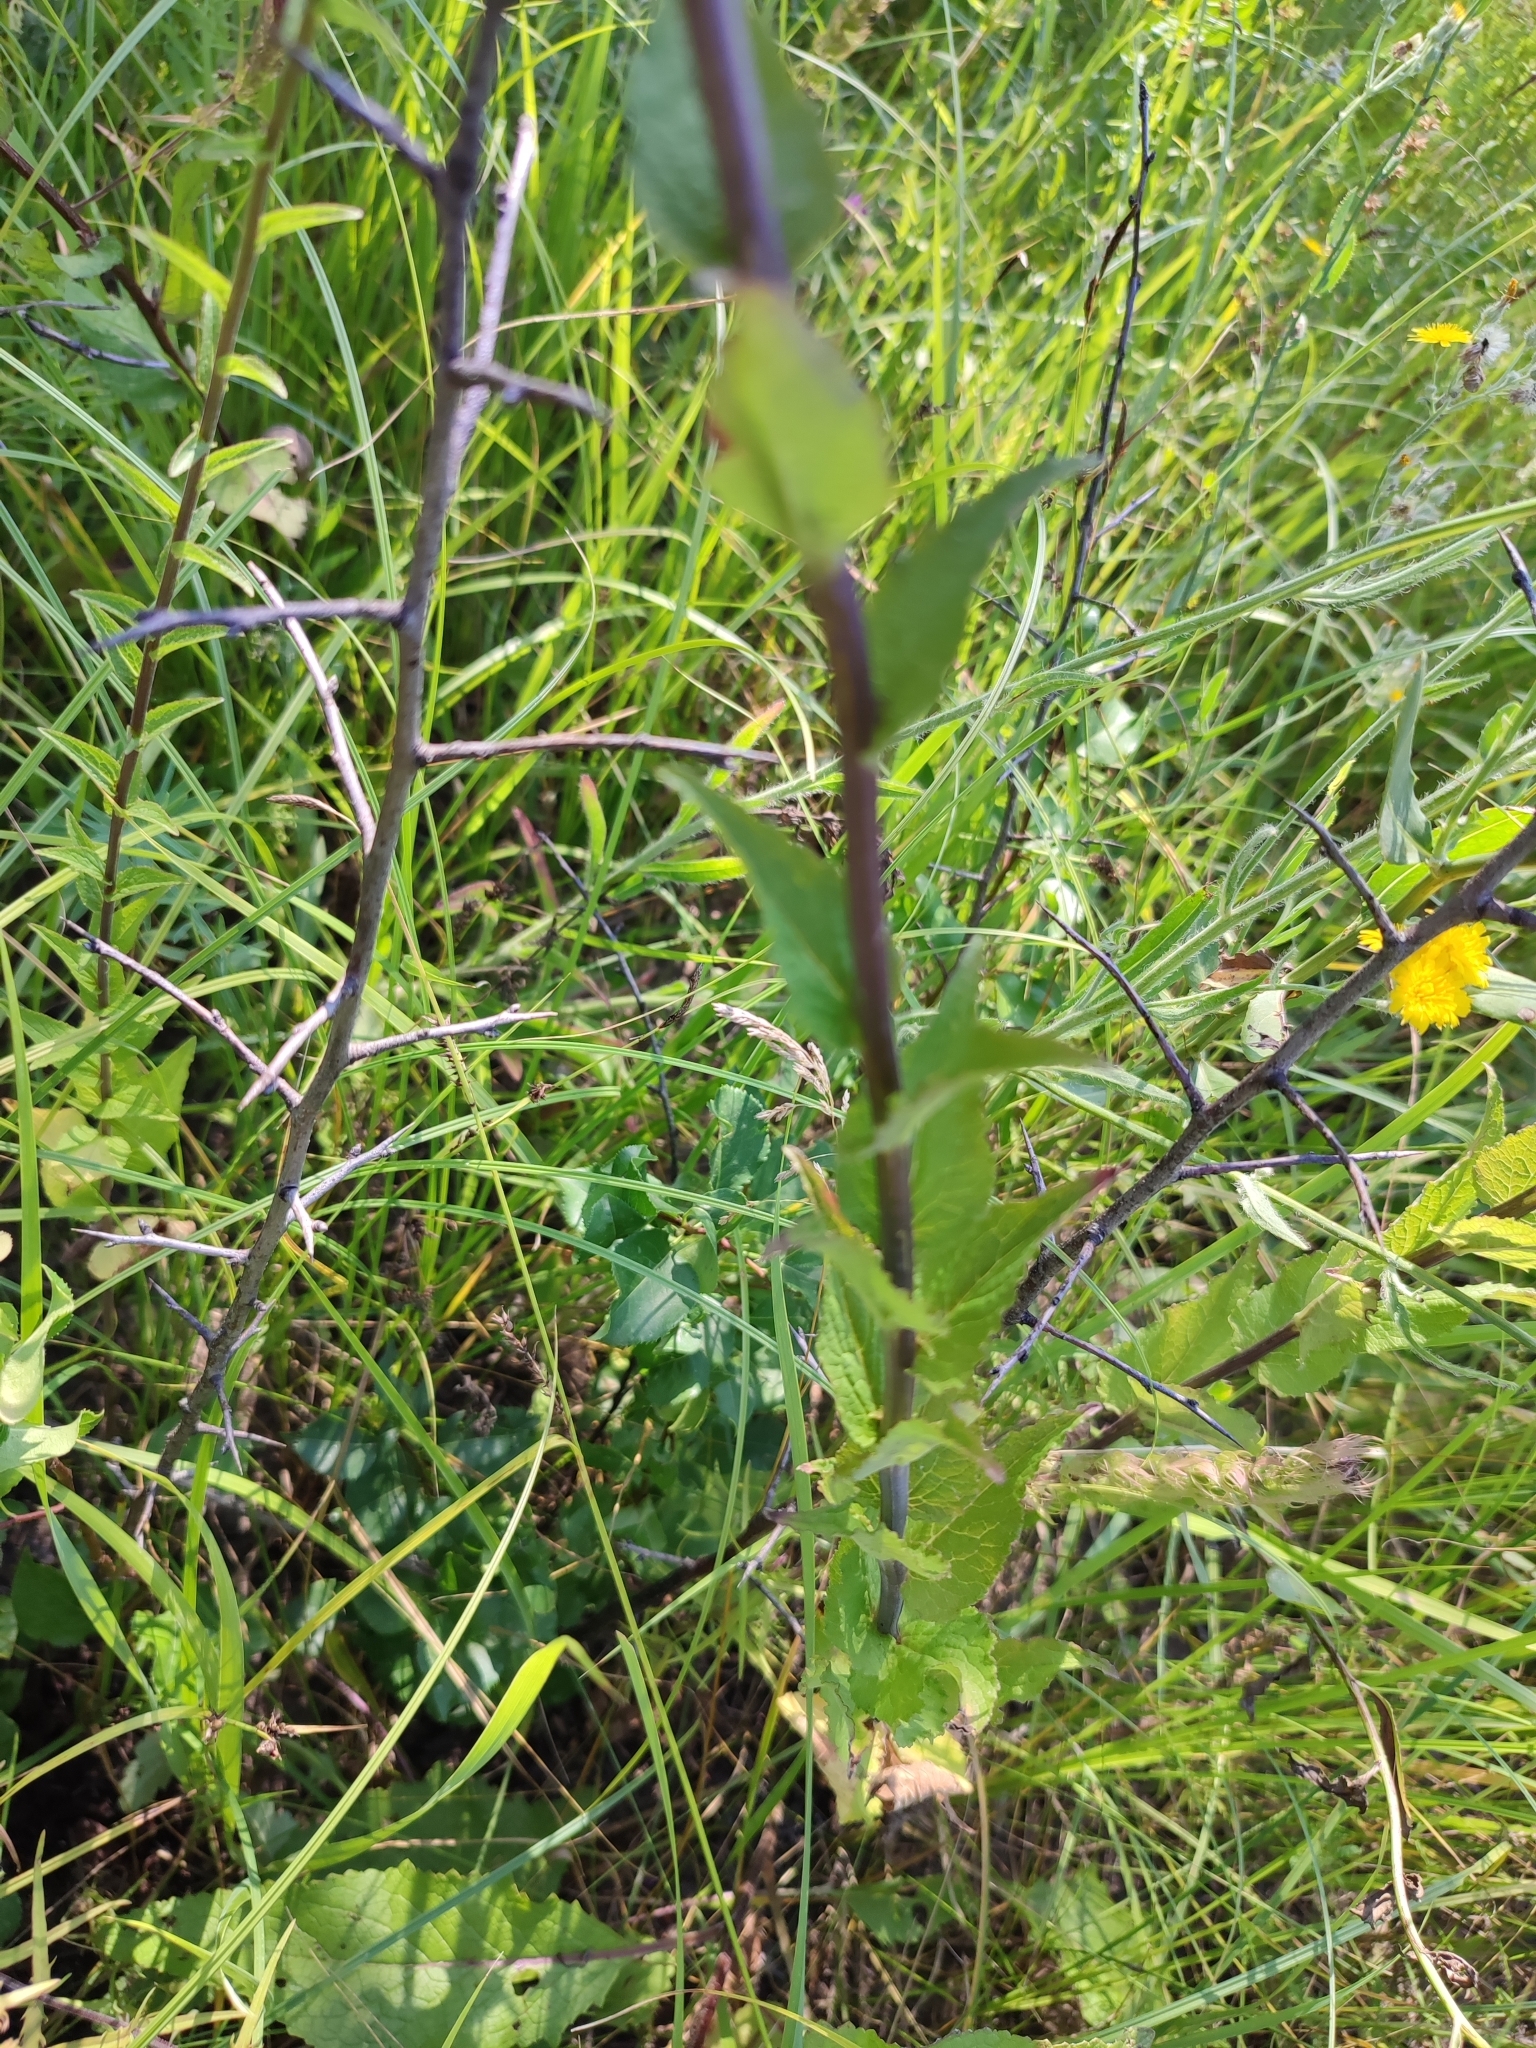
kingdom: Plantae
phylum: Tracheophyta
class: Magnoliopsida
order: Asterales
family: Campanulaceae
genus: Campanula
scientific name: Campanula bononiensis
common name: Pale bellflower
